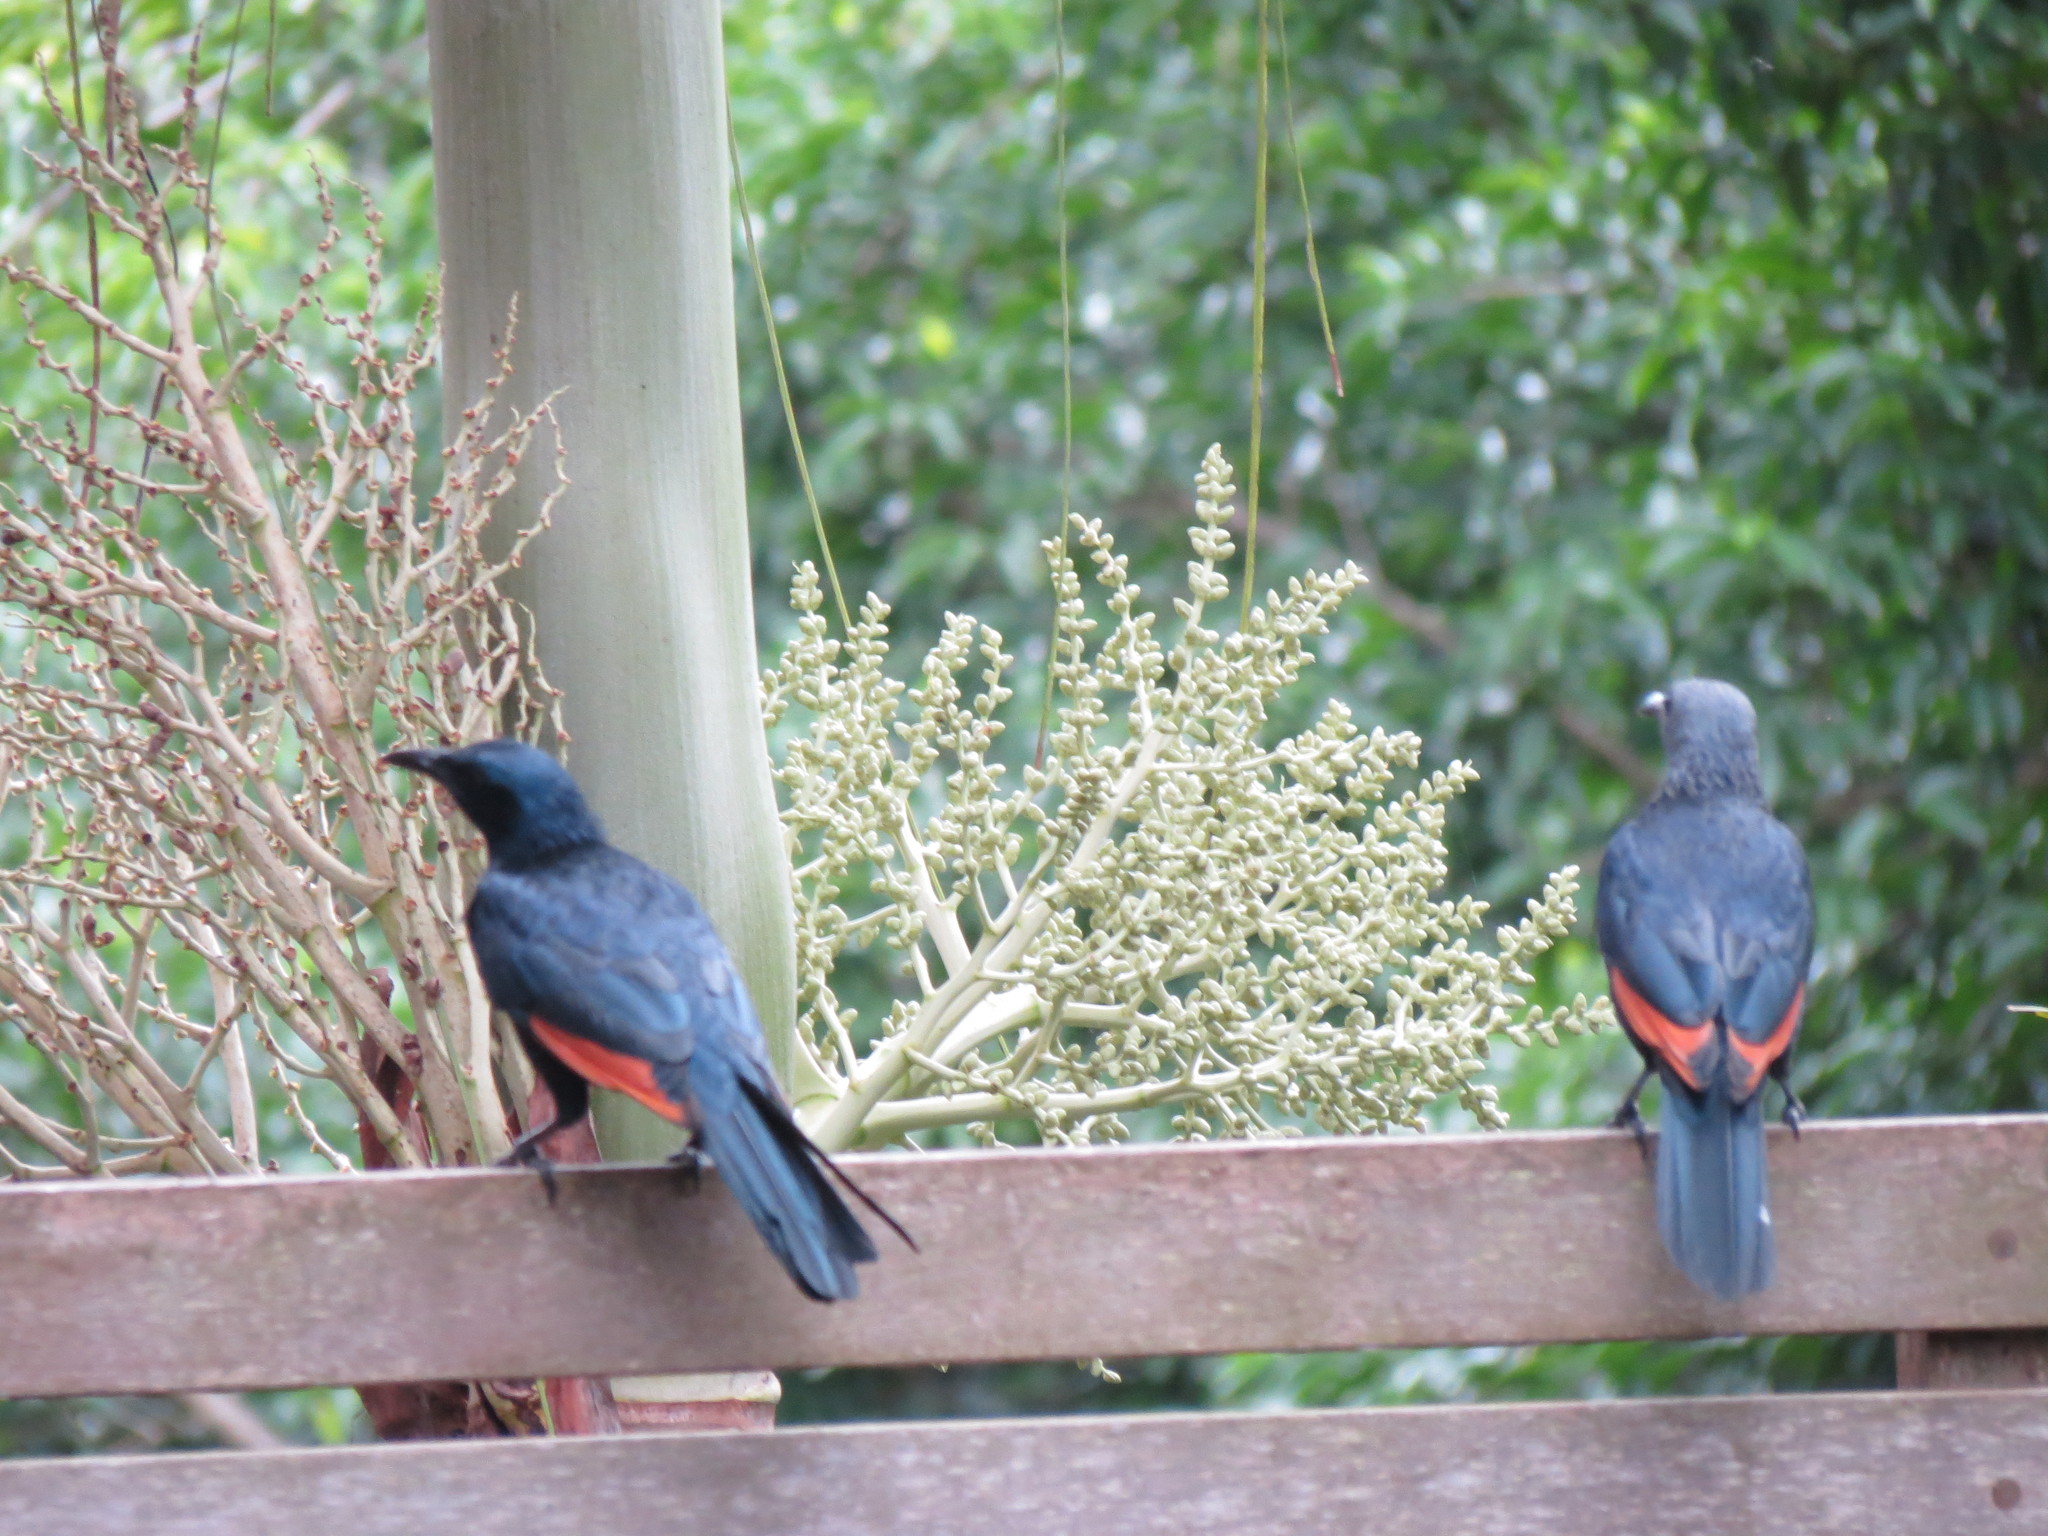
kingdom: Animalia
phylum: Chordata
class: Aves
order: Passeriformes
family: Sturnidae
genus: Onychognathus
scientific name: Onychognathus morio
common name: Red-winged starling
